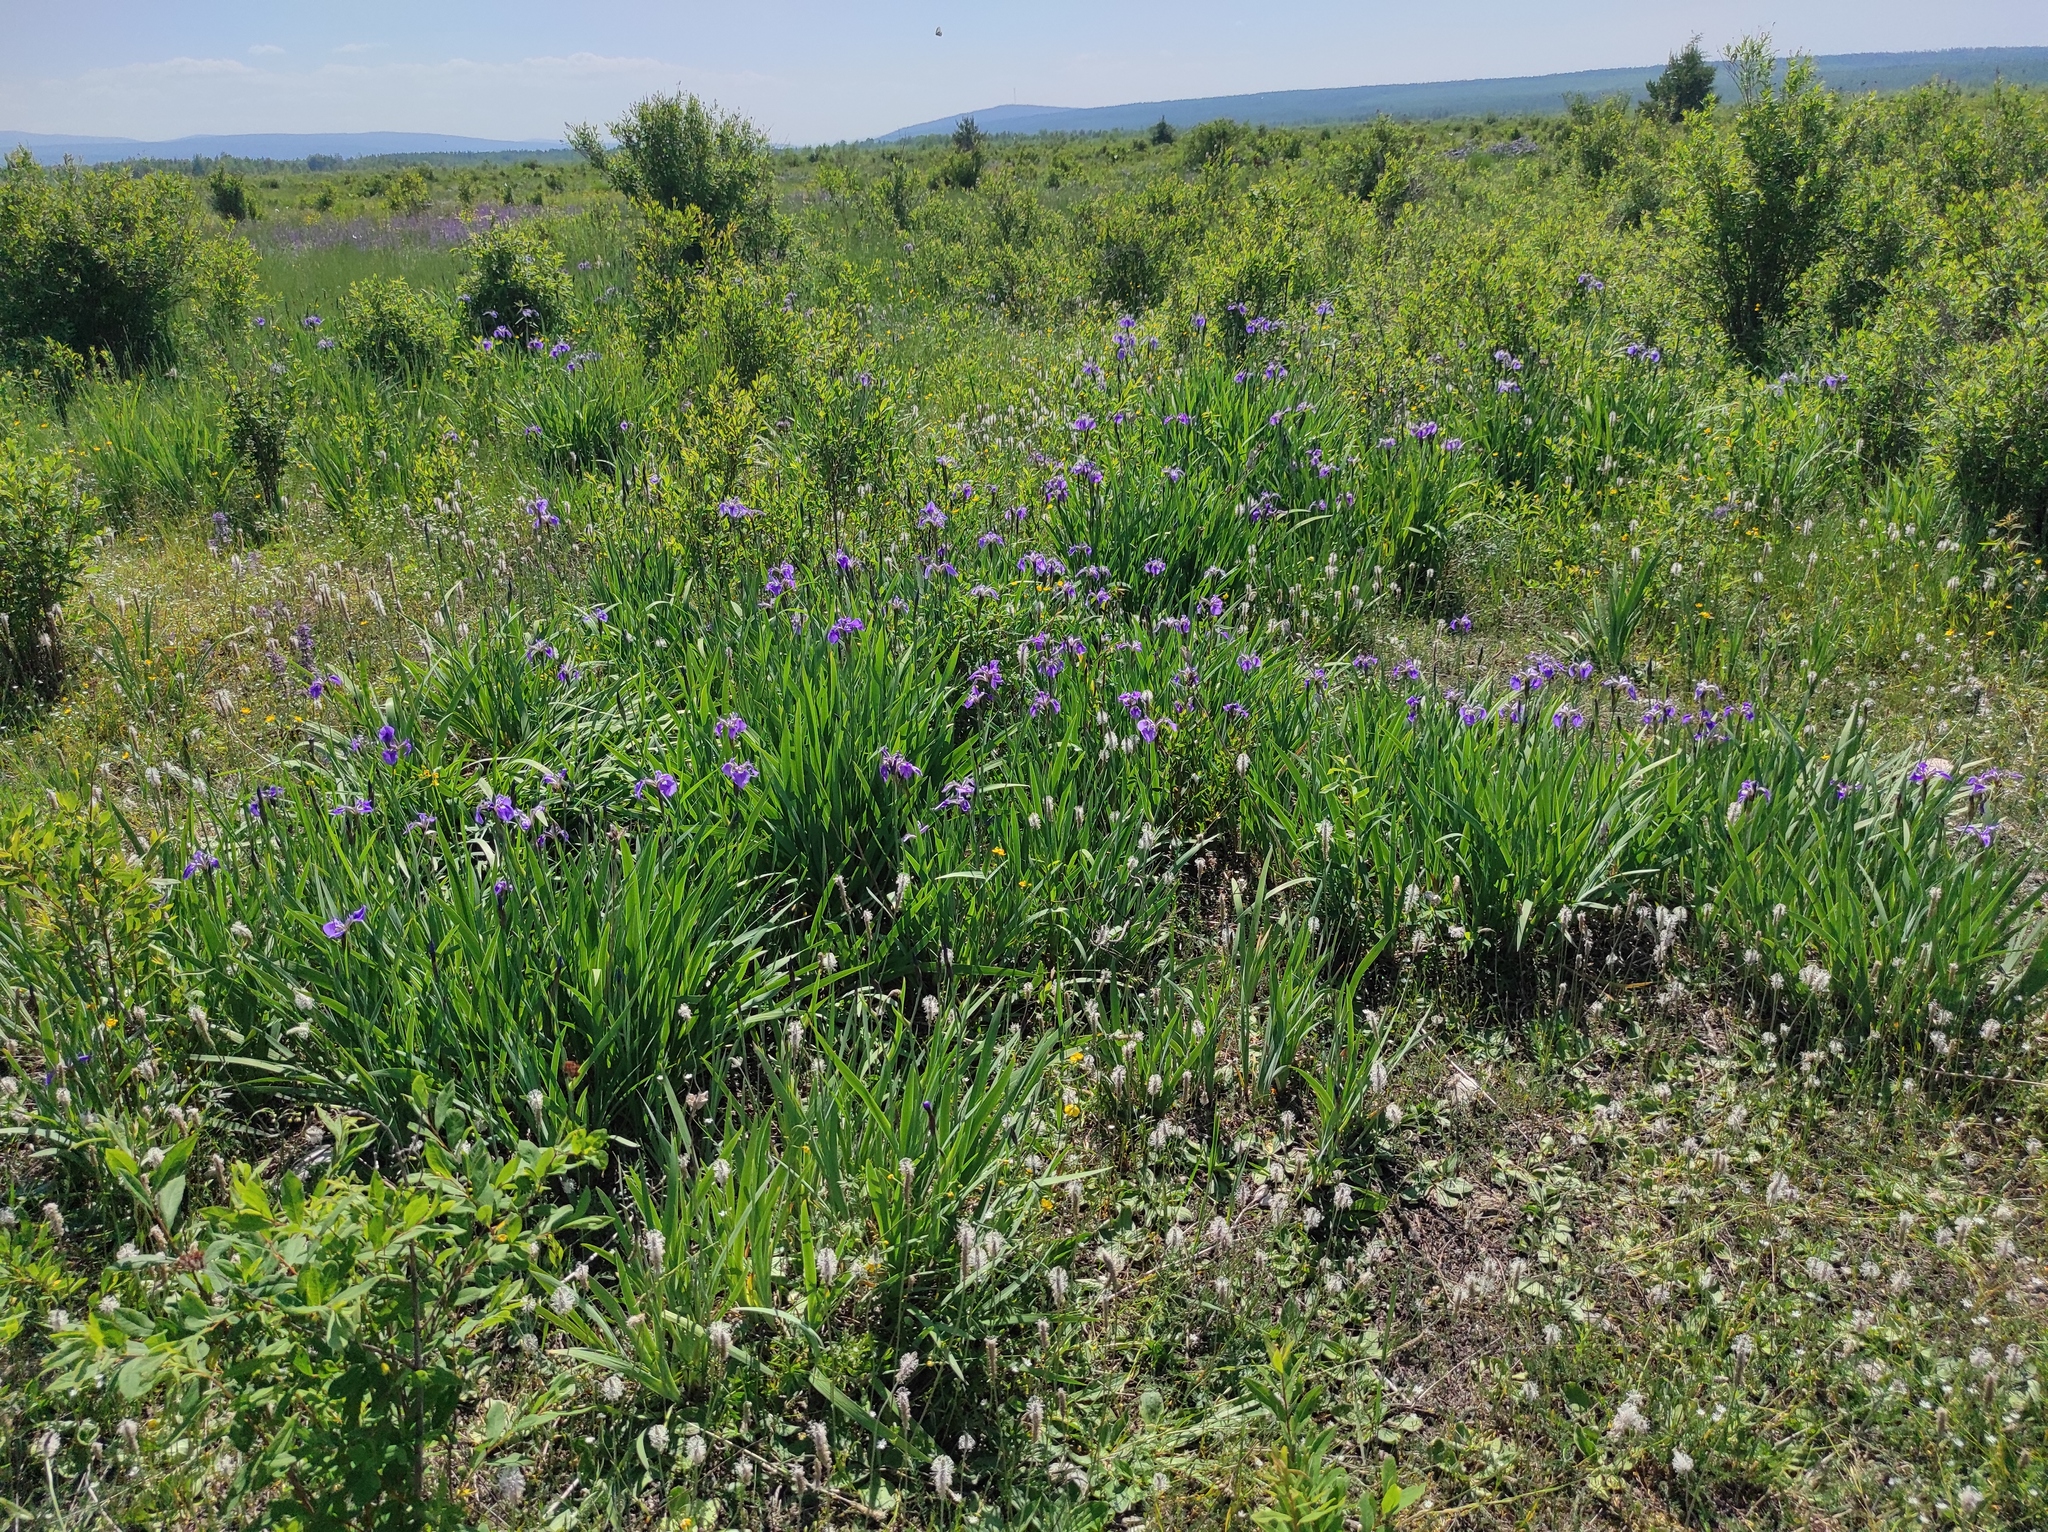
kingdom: Plantae
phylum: Tracheophyta
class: Liliopsida
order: Asparagales
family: Iridaceae
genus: Iris
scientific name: Iris setosa
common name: Arctic blue flag
